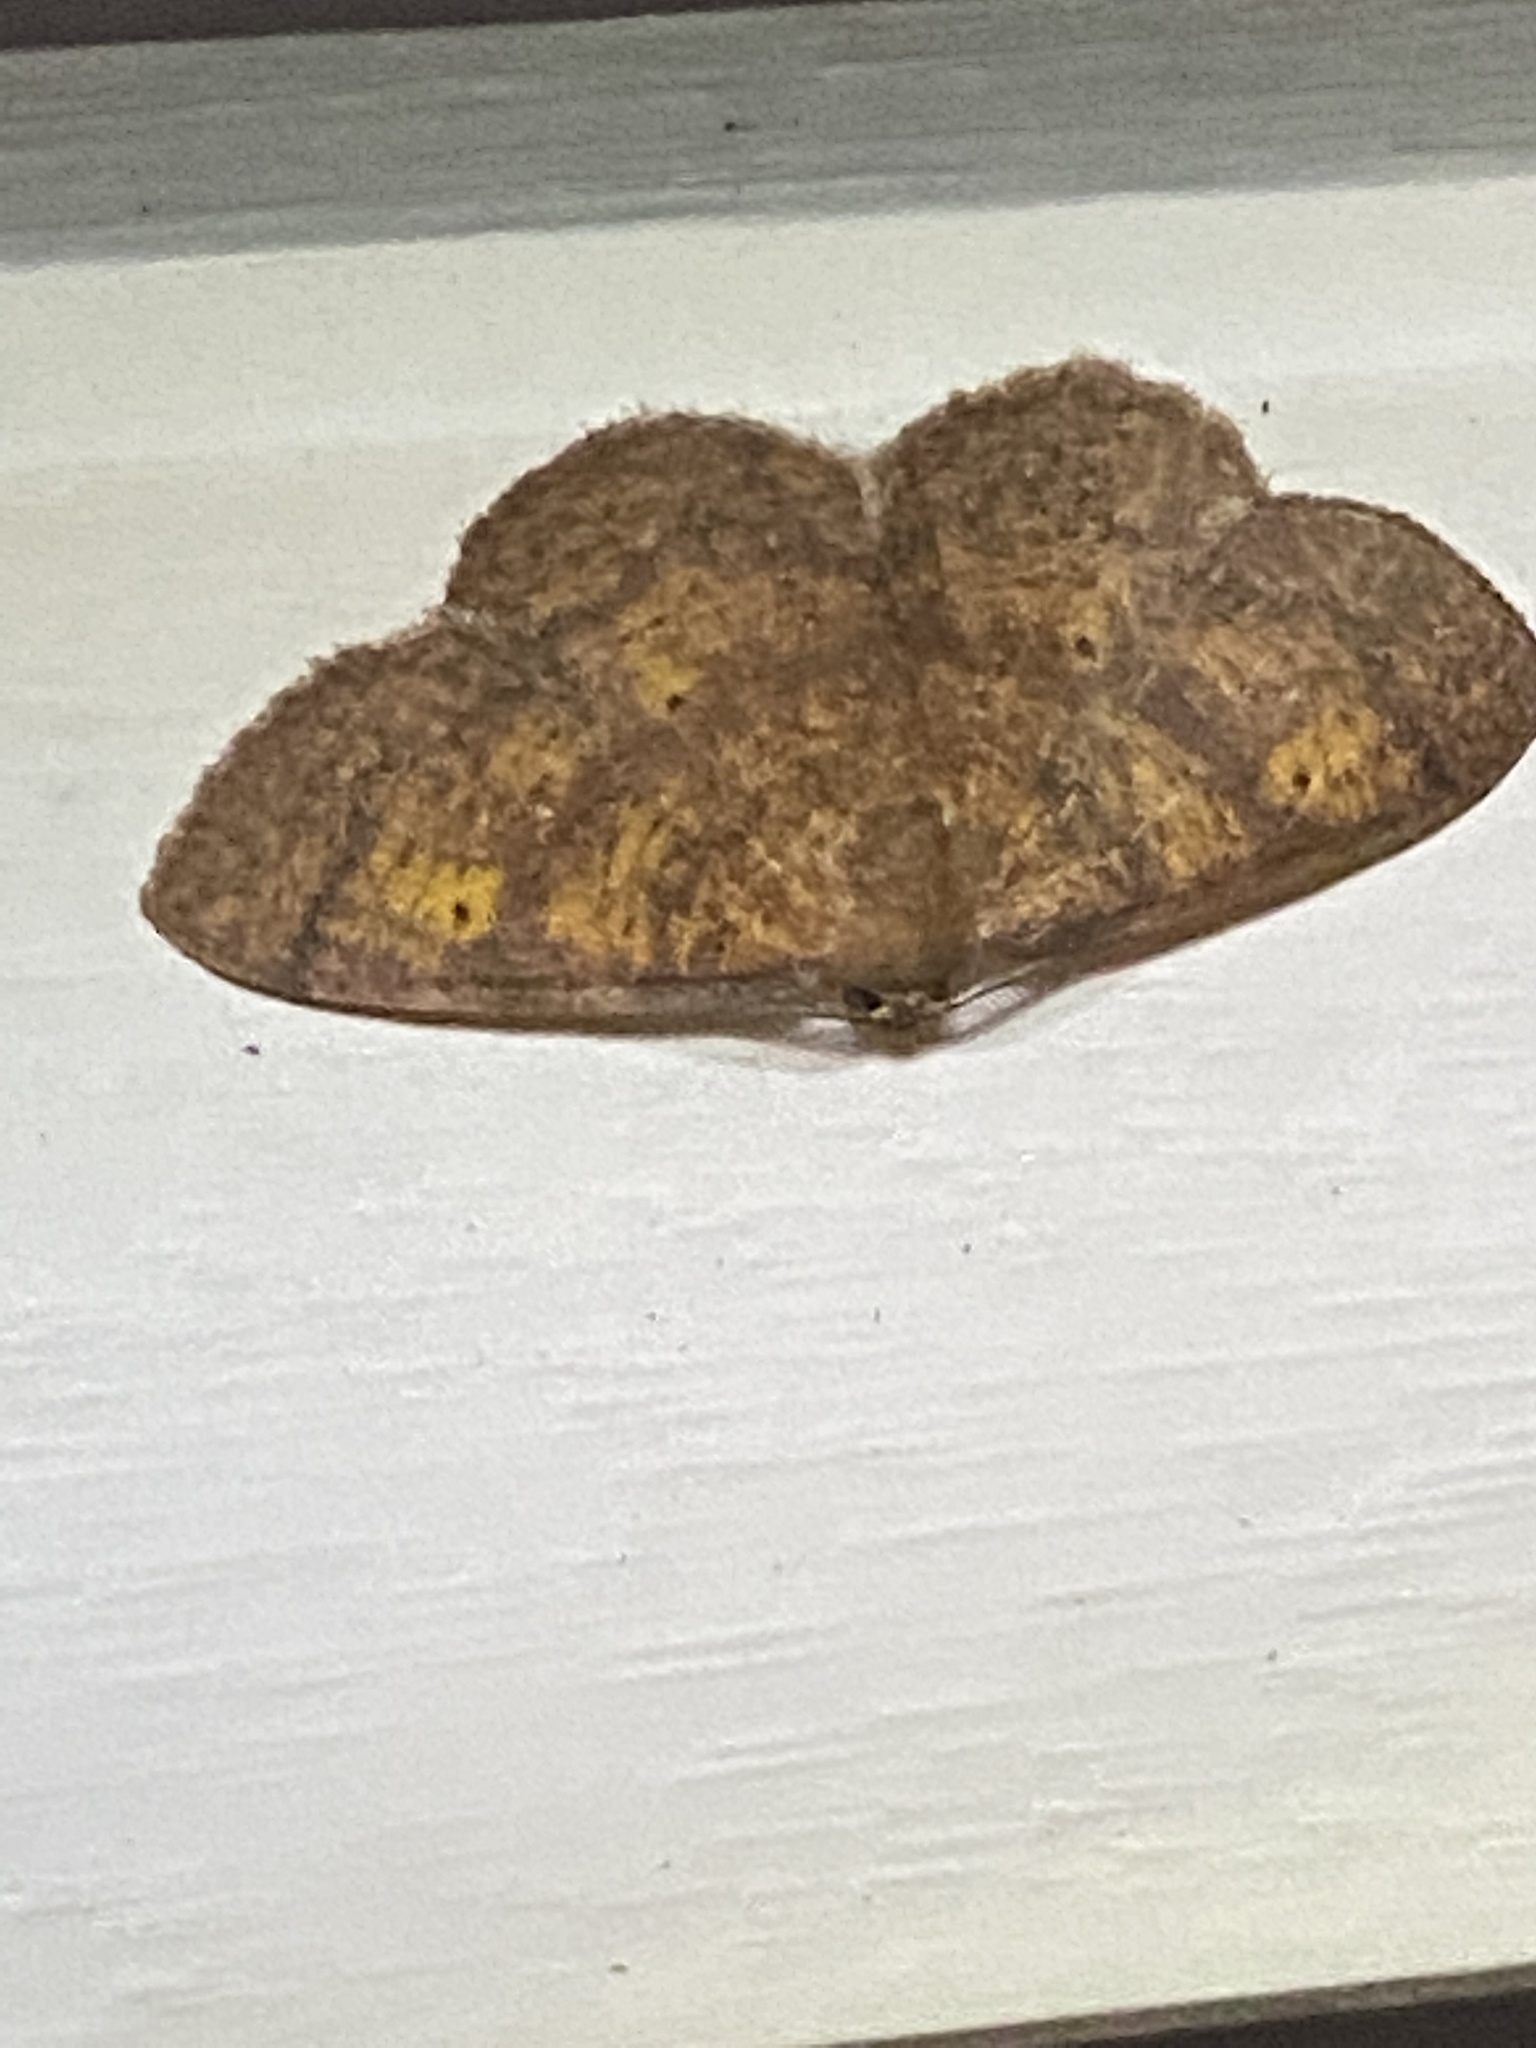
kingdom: Animalia
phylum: Arthropoda
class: Insecta
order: Lepidoptera
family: Geometridae
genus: Ilexia
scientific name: Ilexia intractata
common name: Black-dotted ruddy moth
